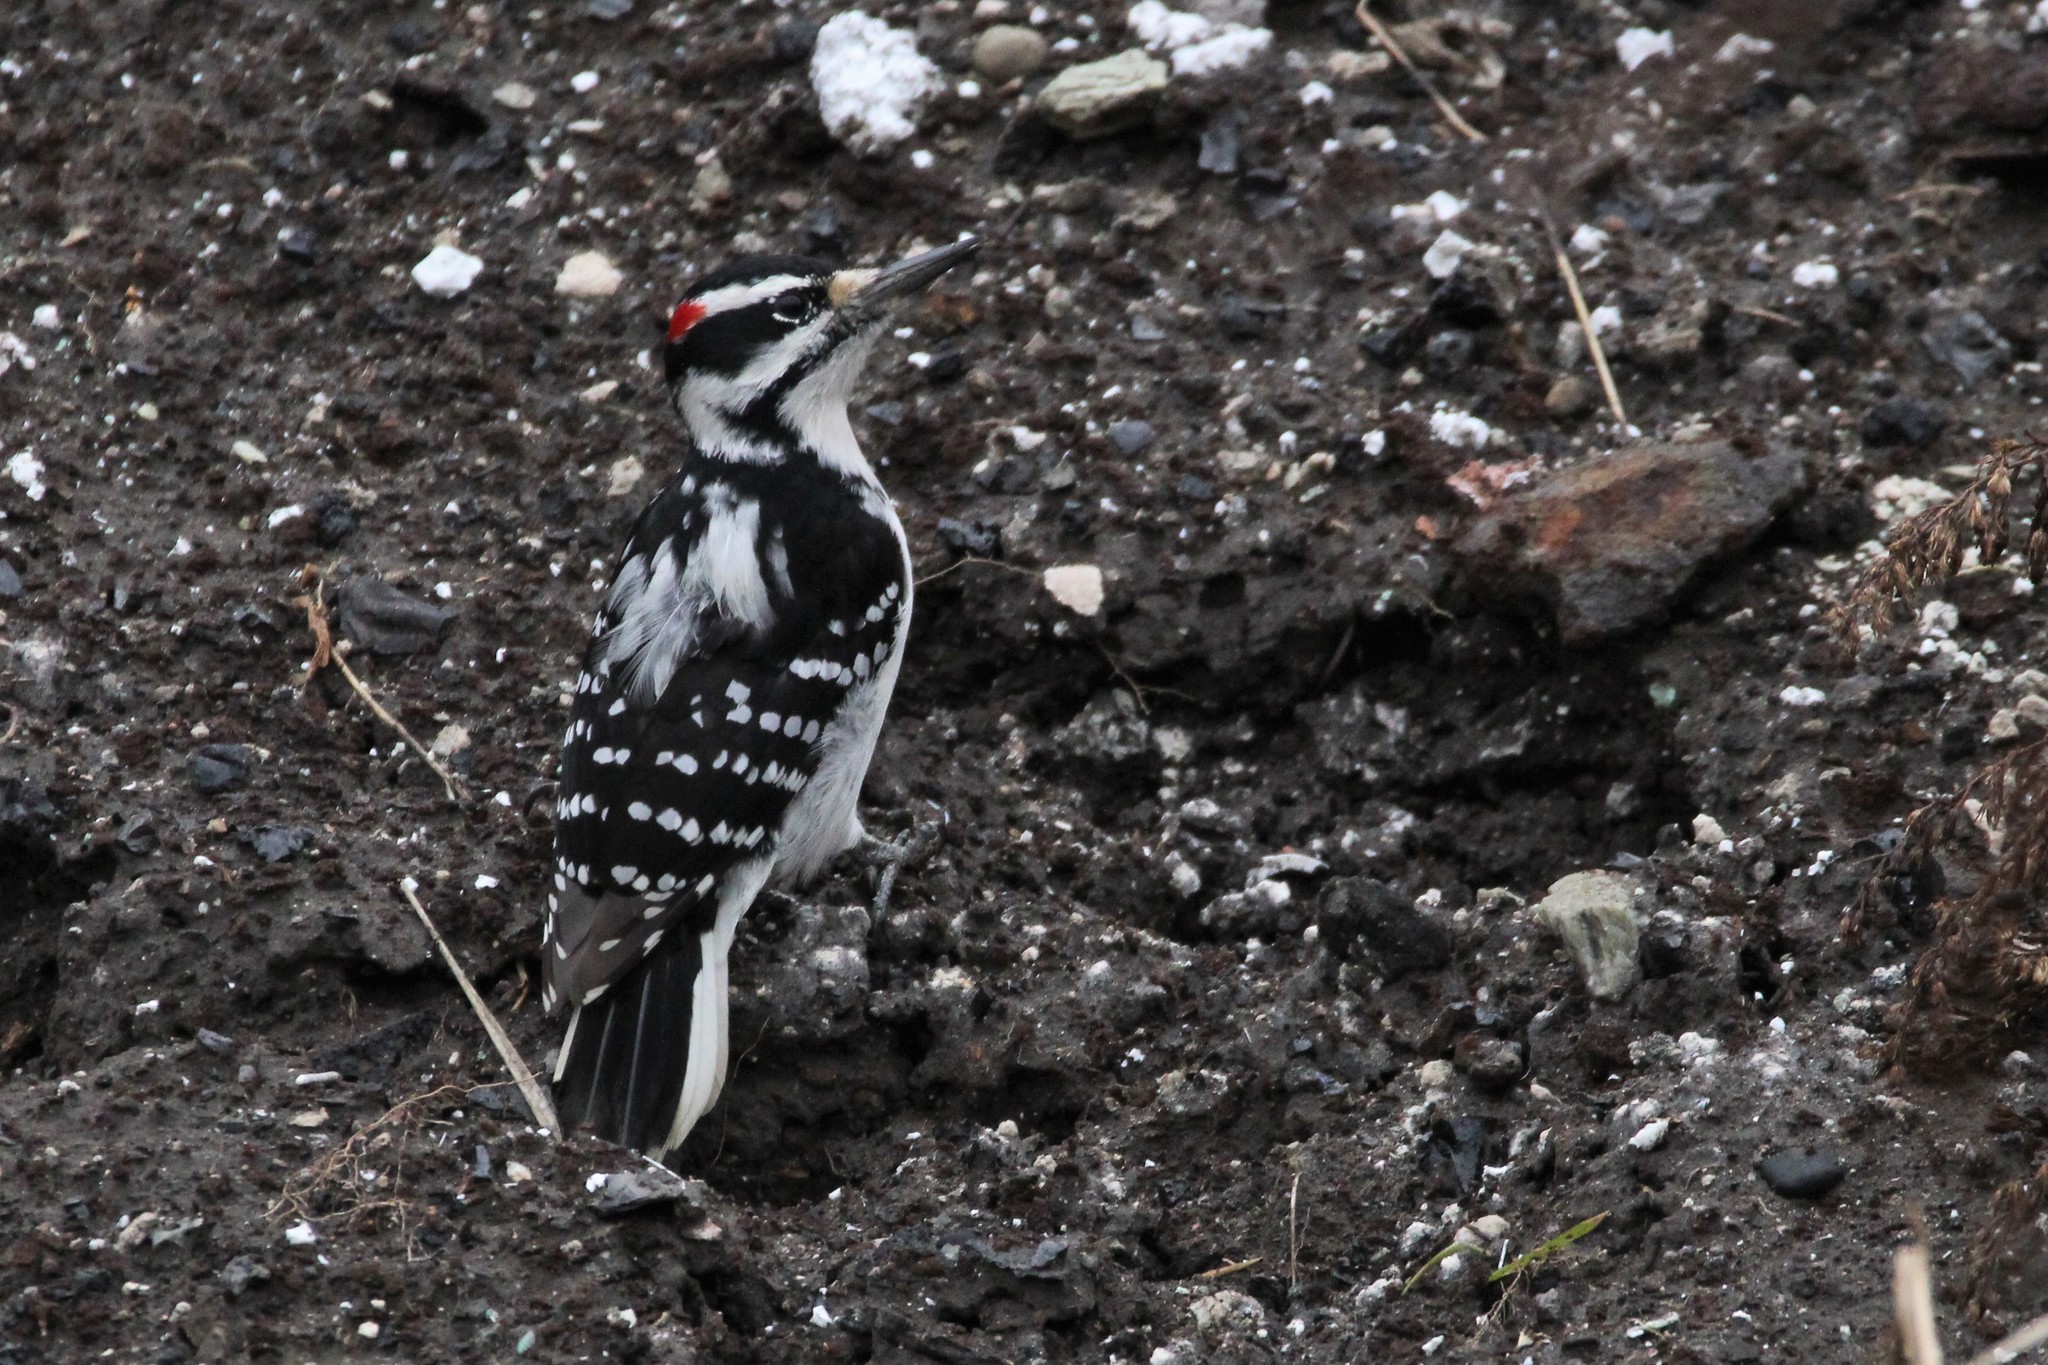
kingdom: Animalia
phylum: Chordata
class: Aves
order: Piciformes
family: Picidae
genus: Leuconotopicus
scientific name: Leuconotopicus villosus
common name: Hairy woodpecker
